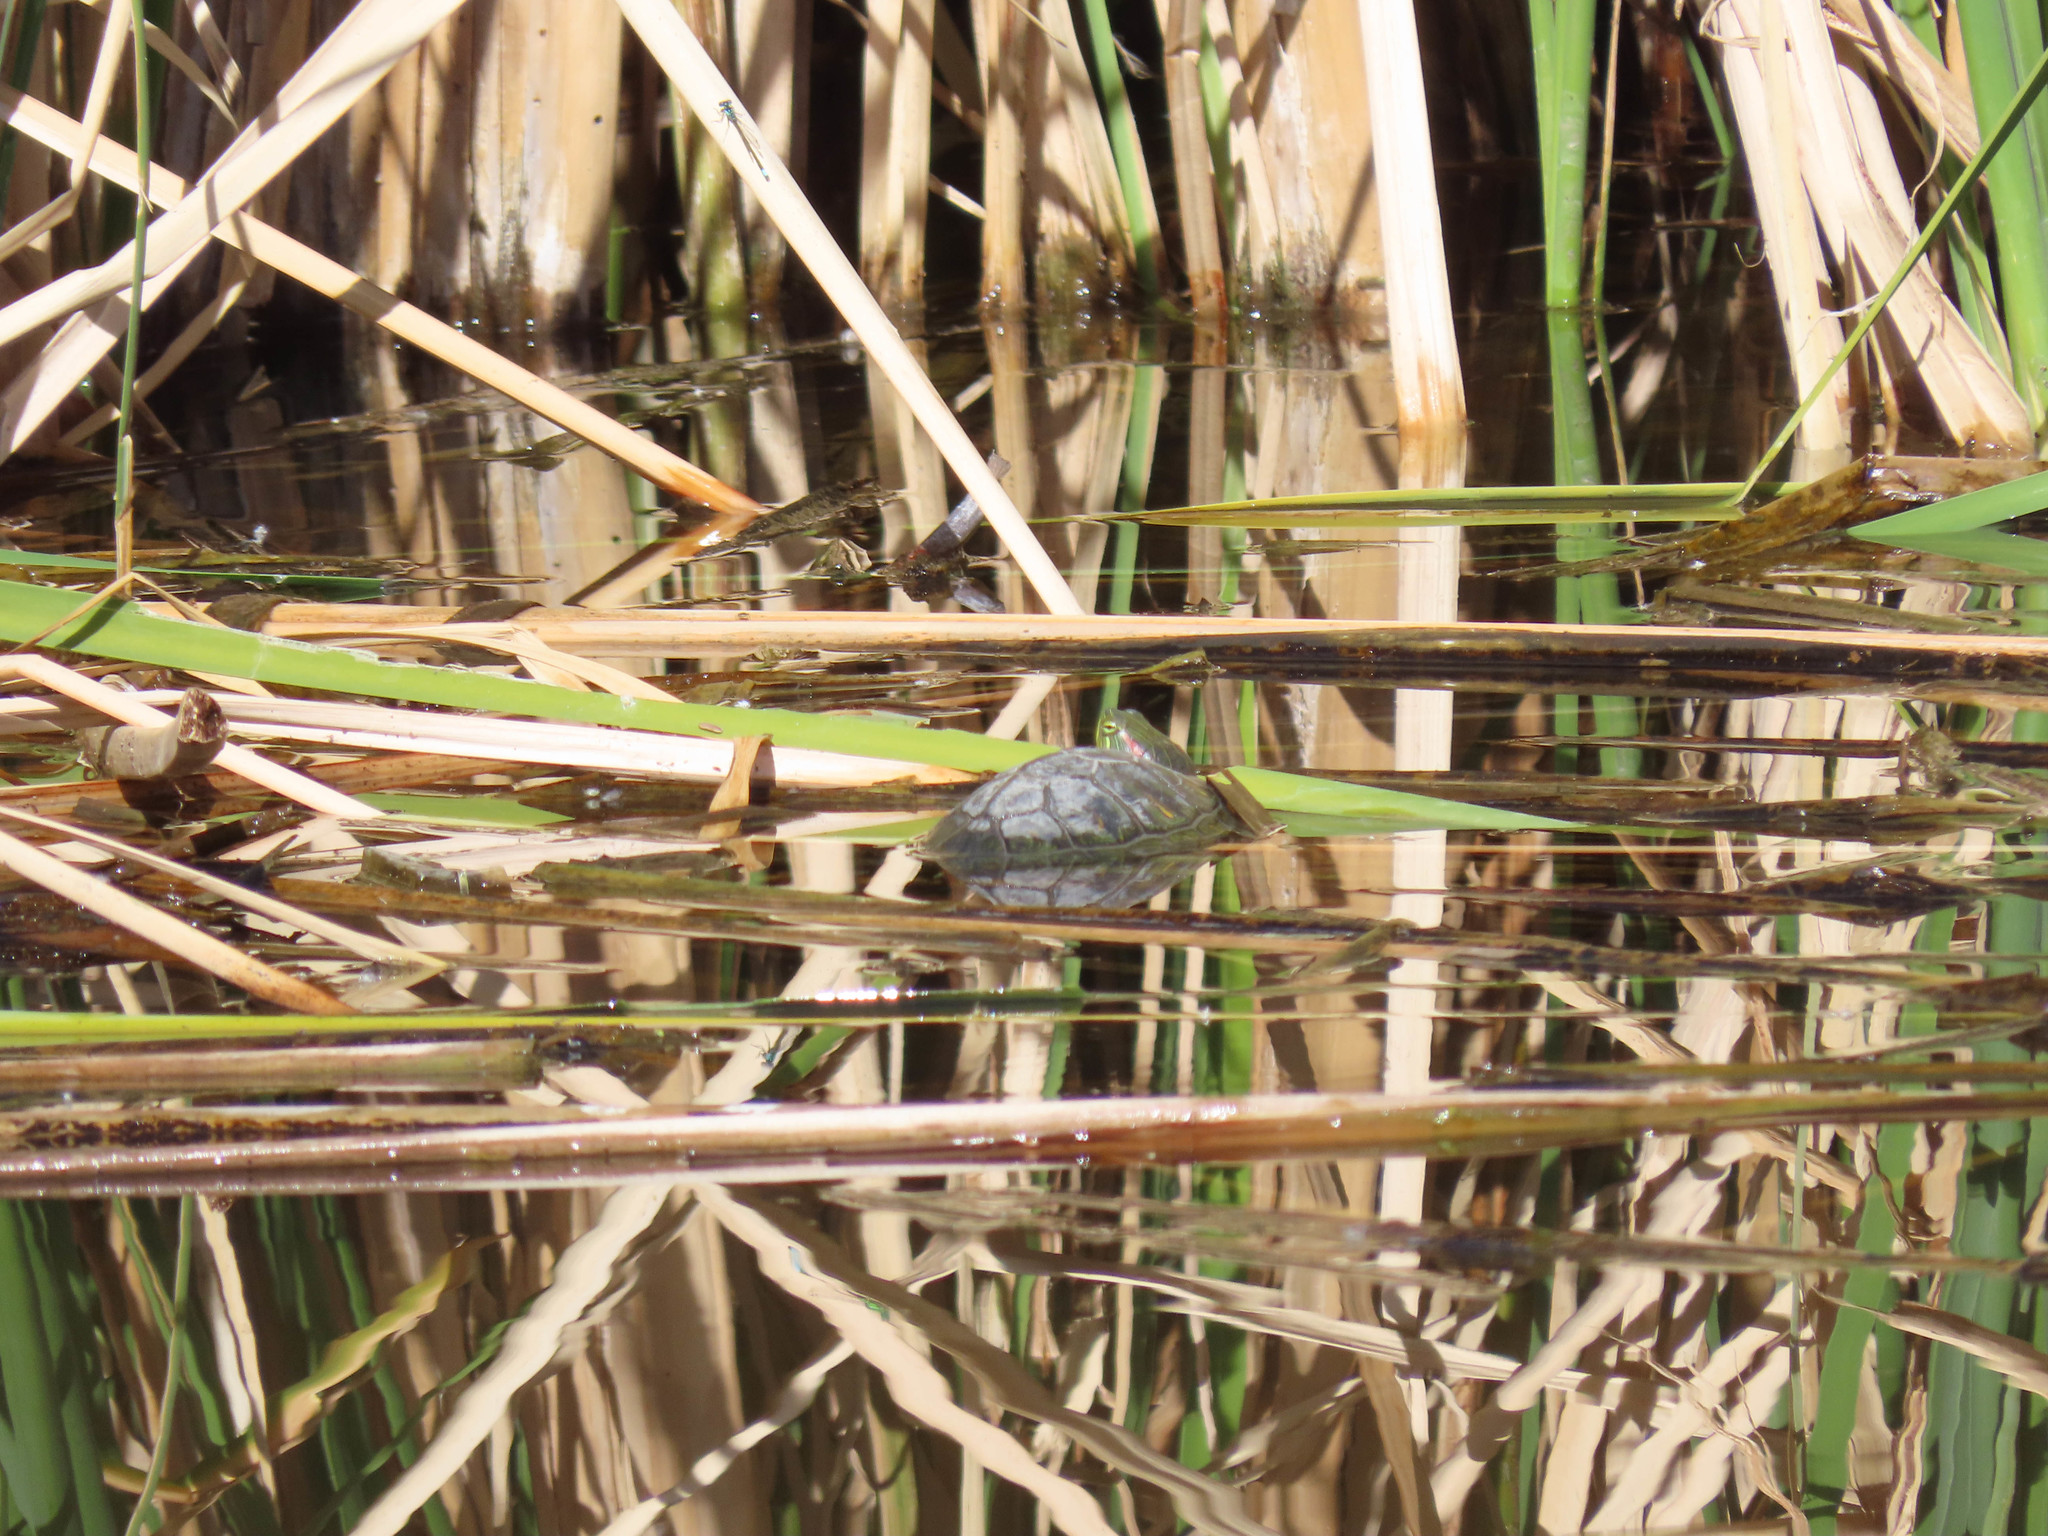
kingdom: Animalia
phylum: Chordata
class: Testudines
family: Emydidae
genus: Trachemys
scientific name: Trachemys scripta
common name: Slider
